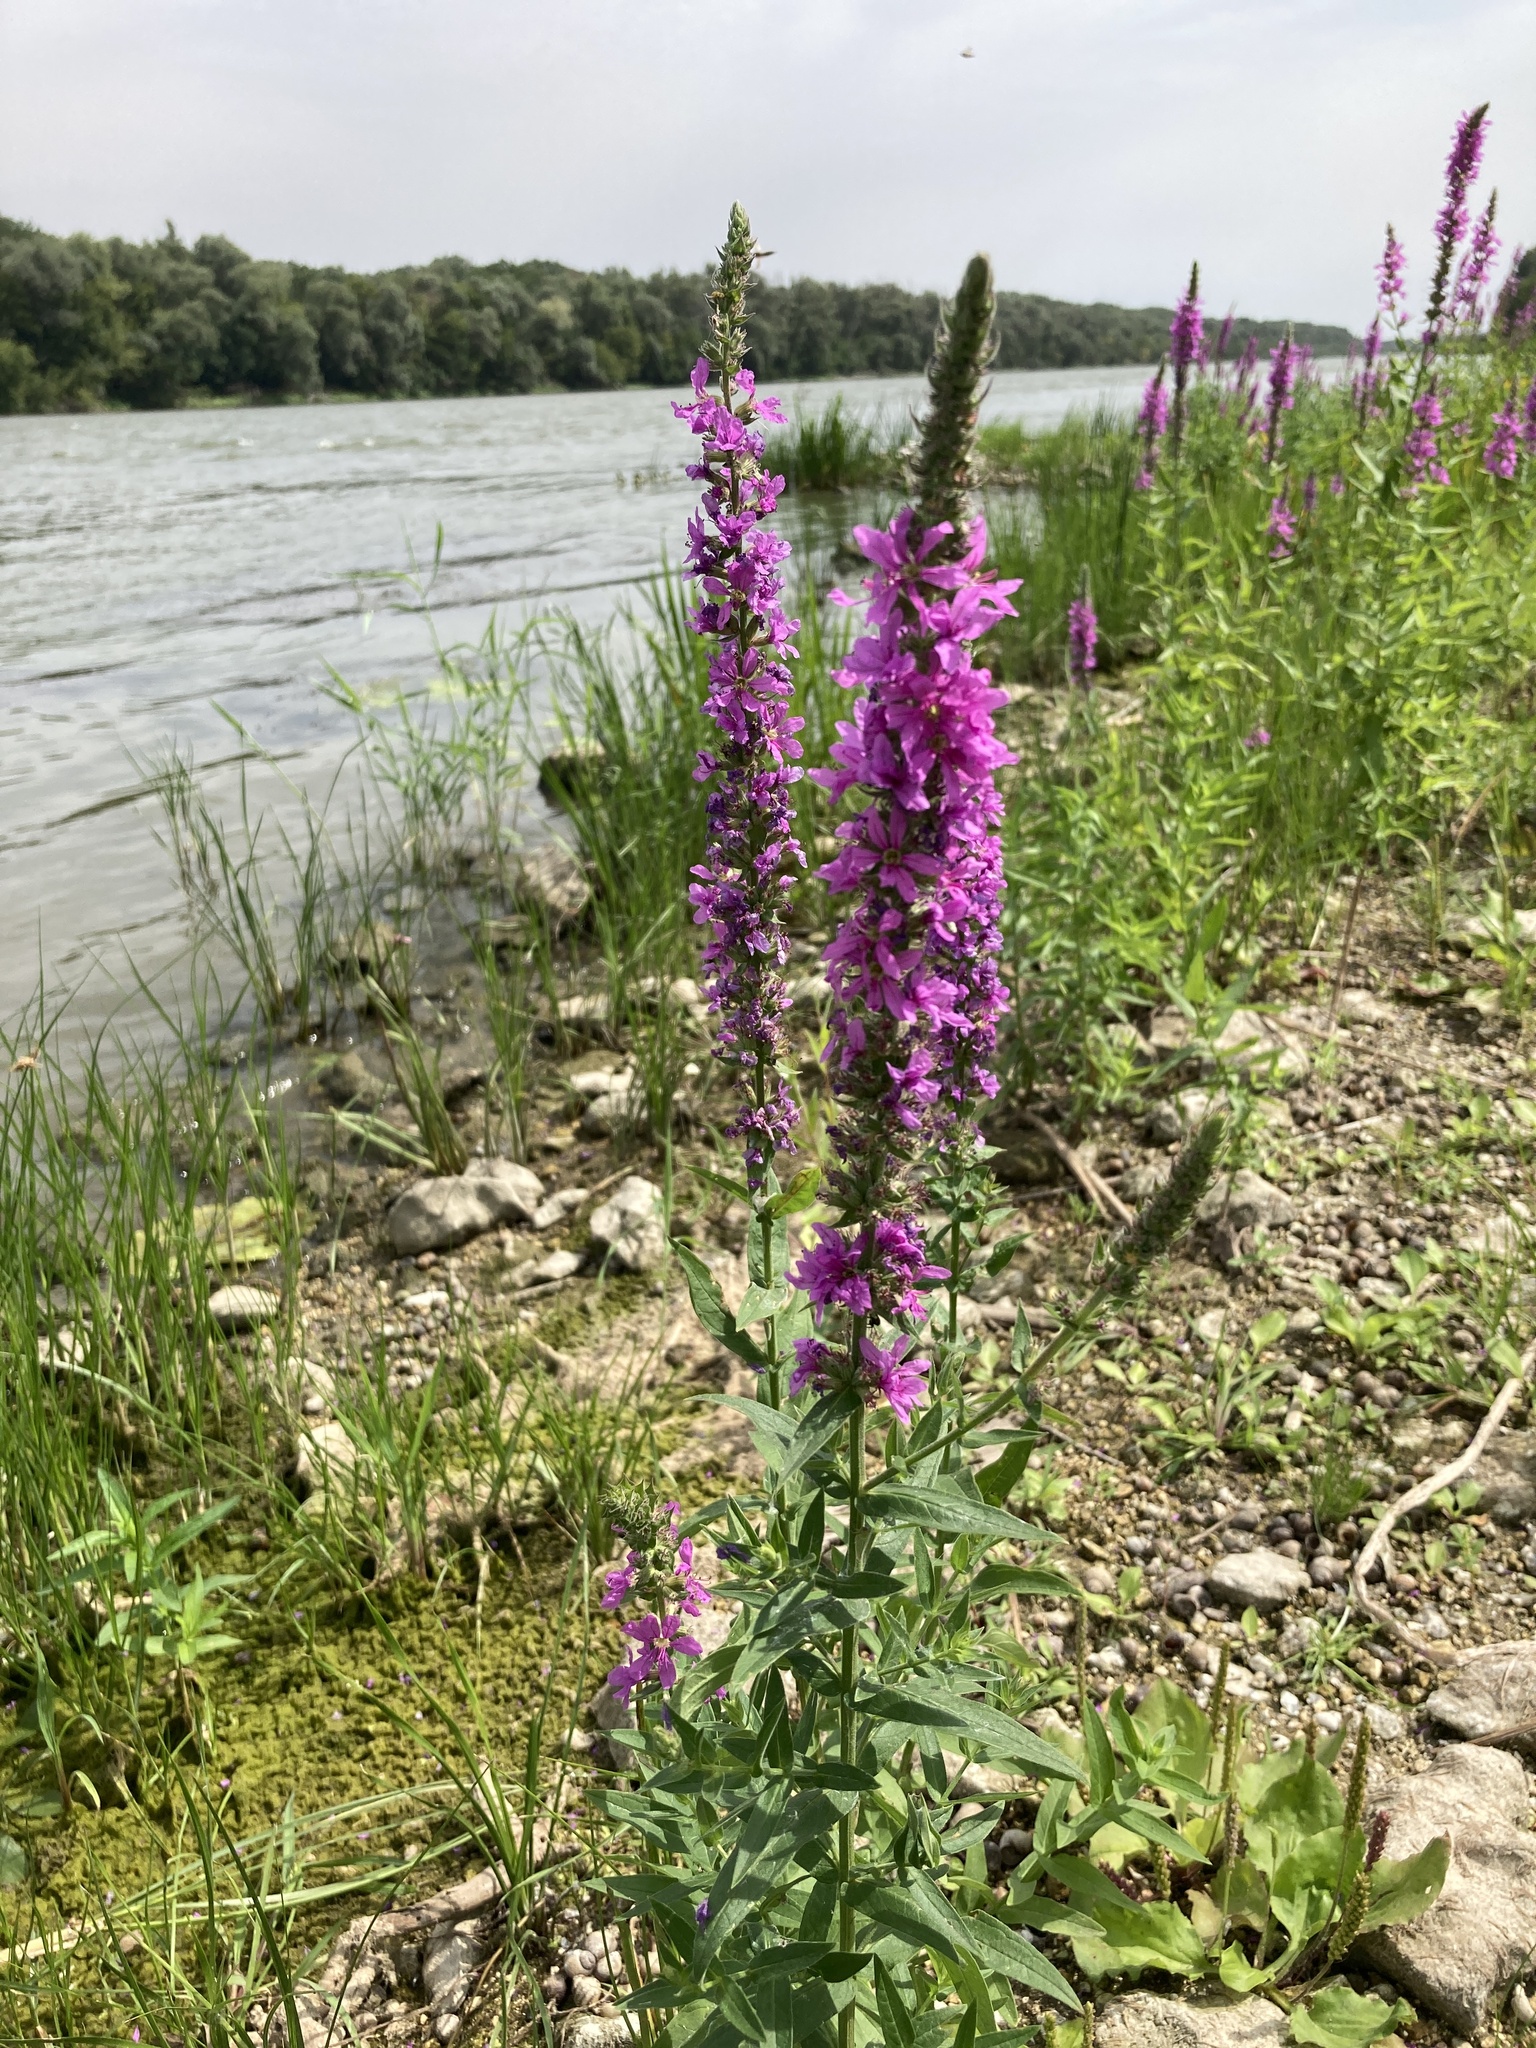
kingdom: Plantae
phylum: Tracheophyta
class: Magnoliopsida
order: Myrtales
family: Lythraceae
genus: Lythrum
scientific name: Lythrum salicaria
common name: Purple loosestrife
